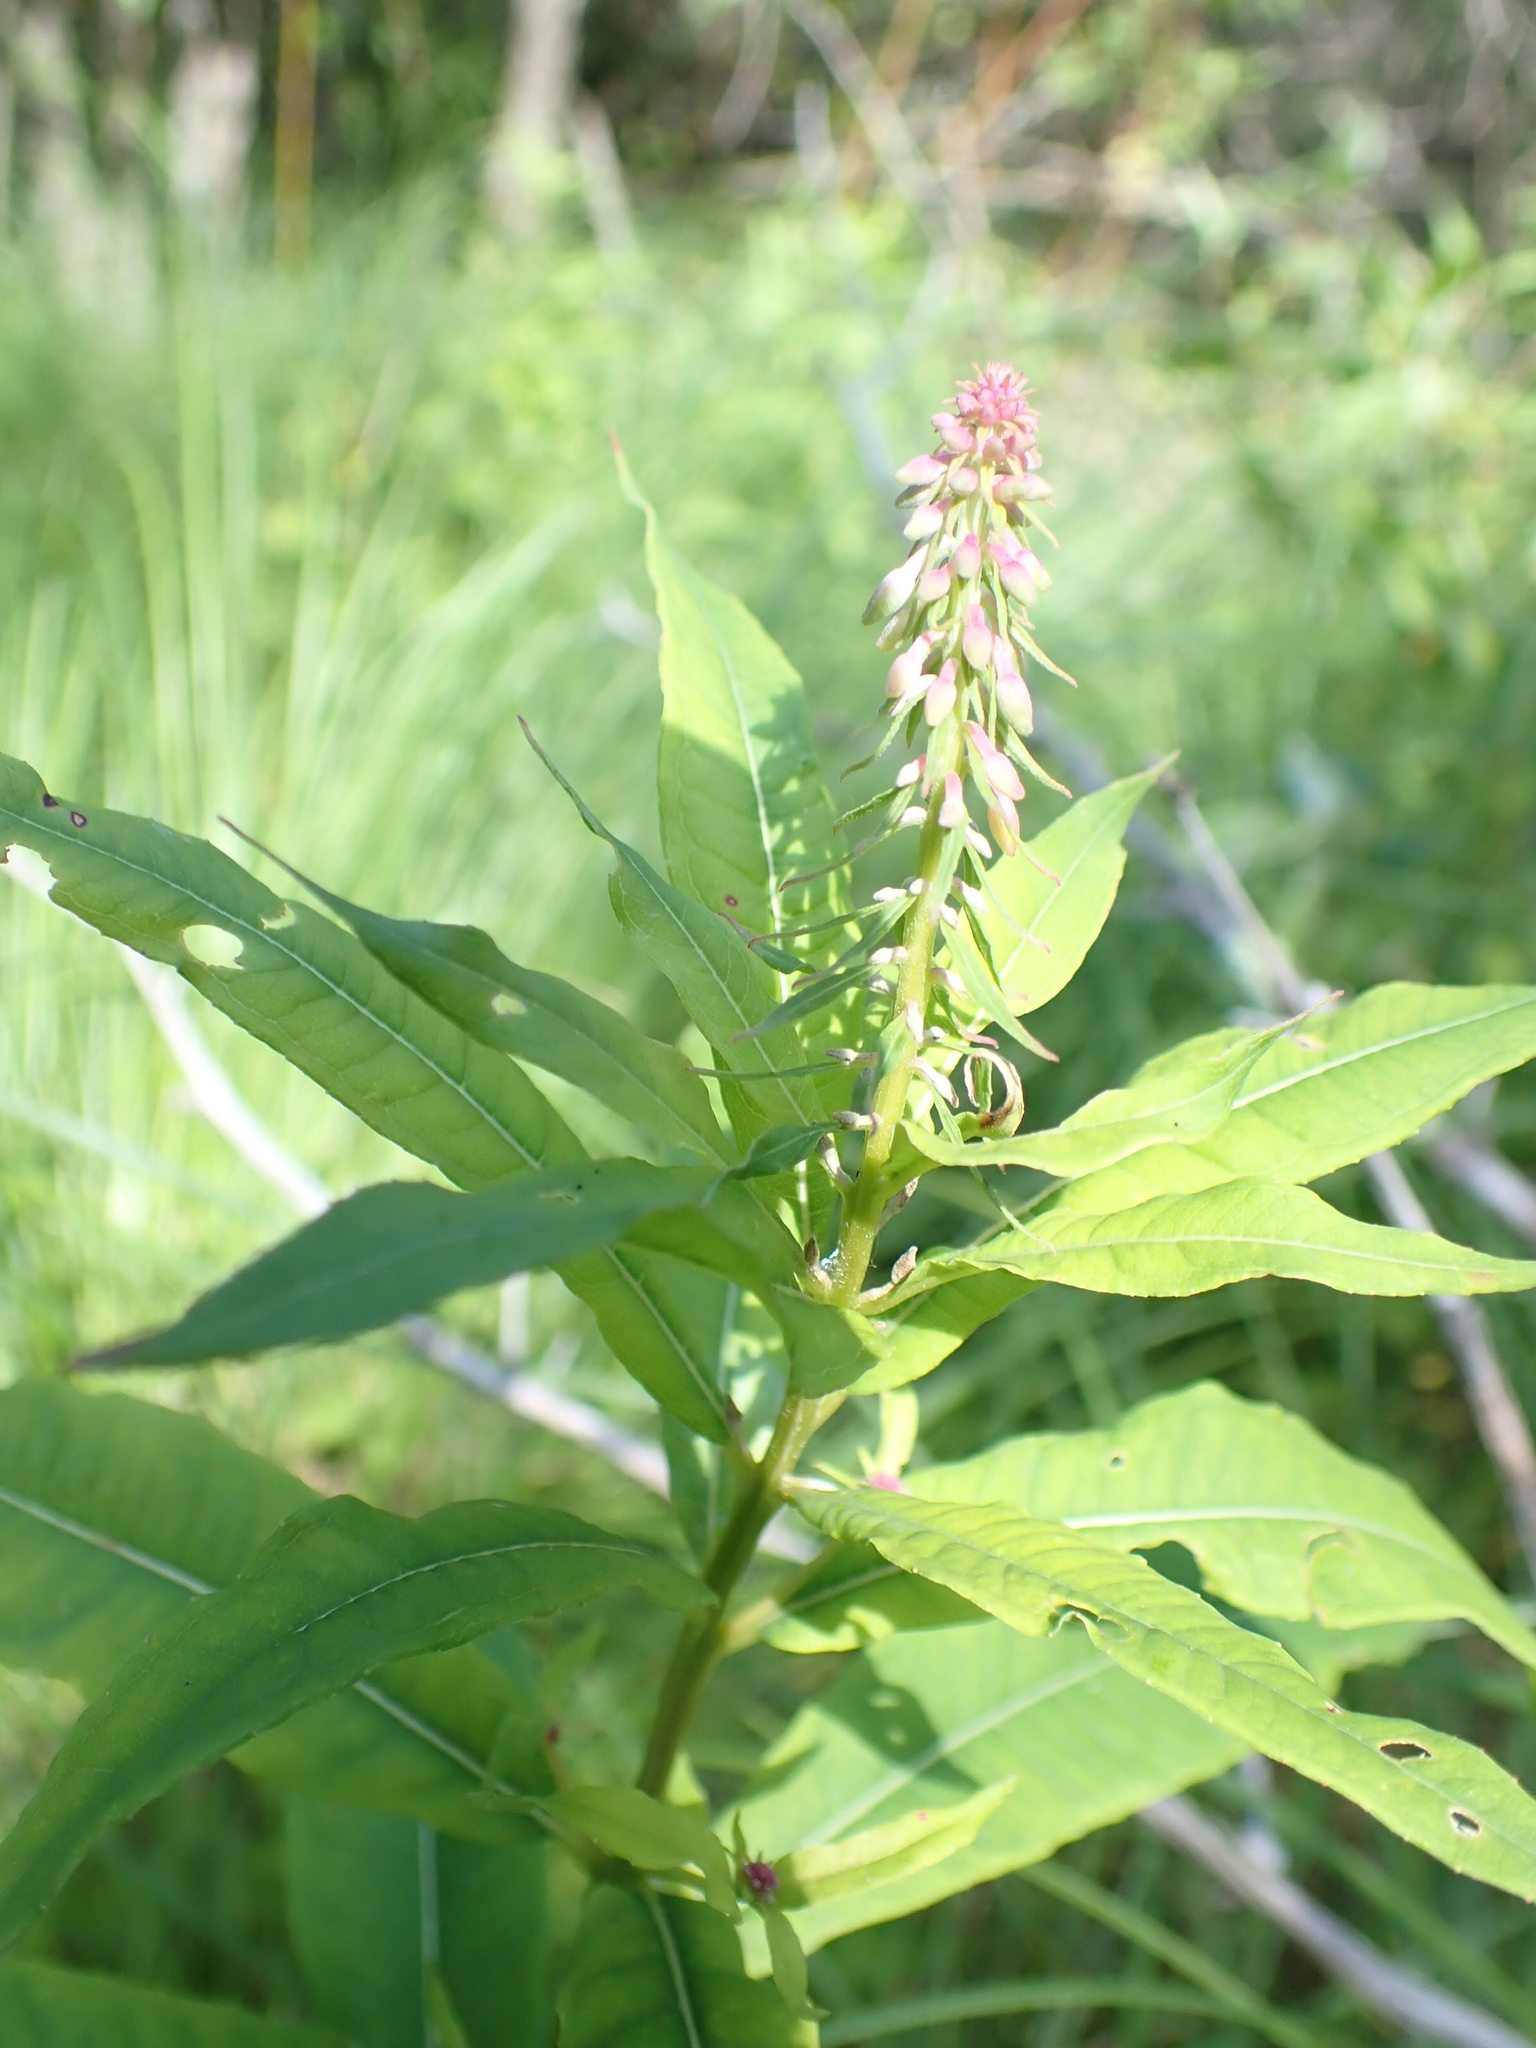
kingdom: Plantae
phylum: Tracheophyta
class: Magnoliopsida
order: Myrtales
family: Onagraceae
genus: Chamaenerion
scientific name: Chamaenerion angustifolium
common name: Fireweed
